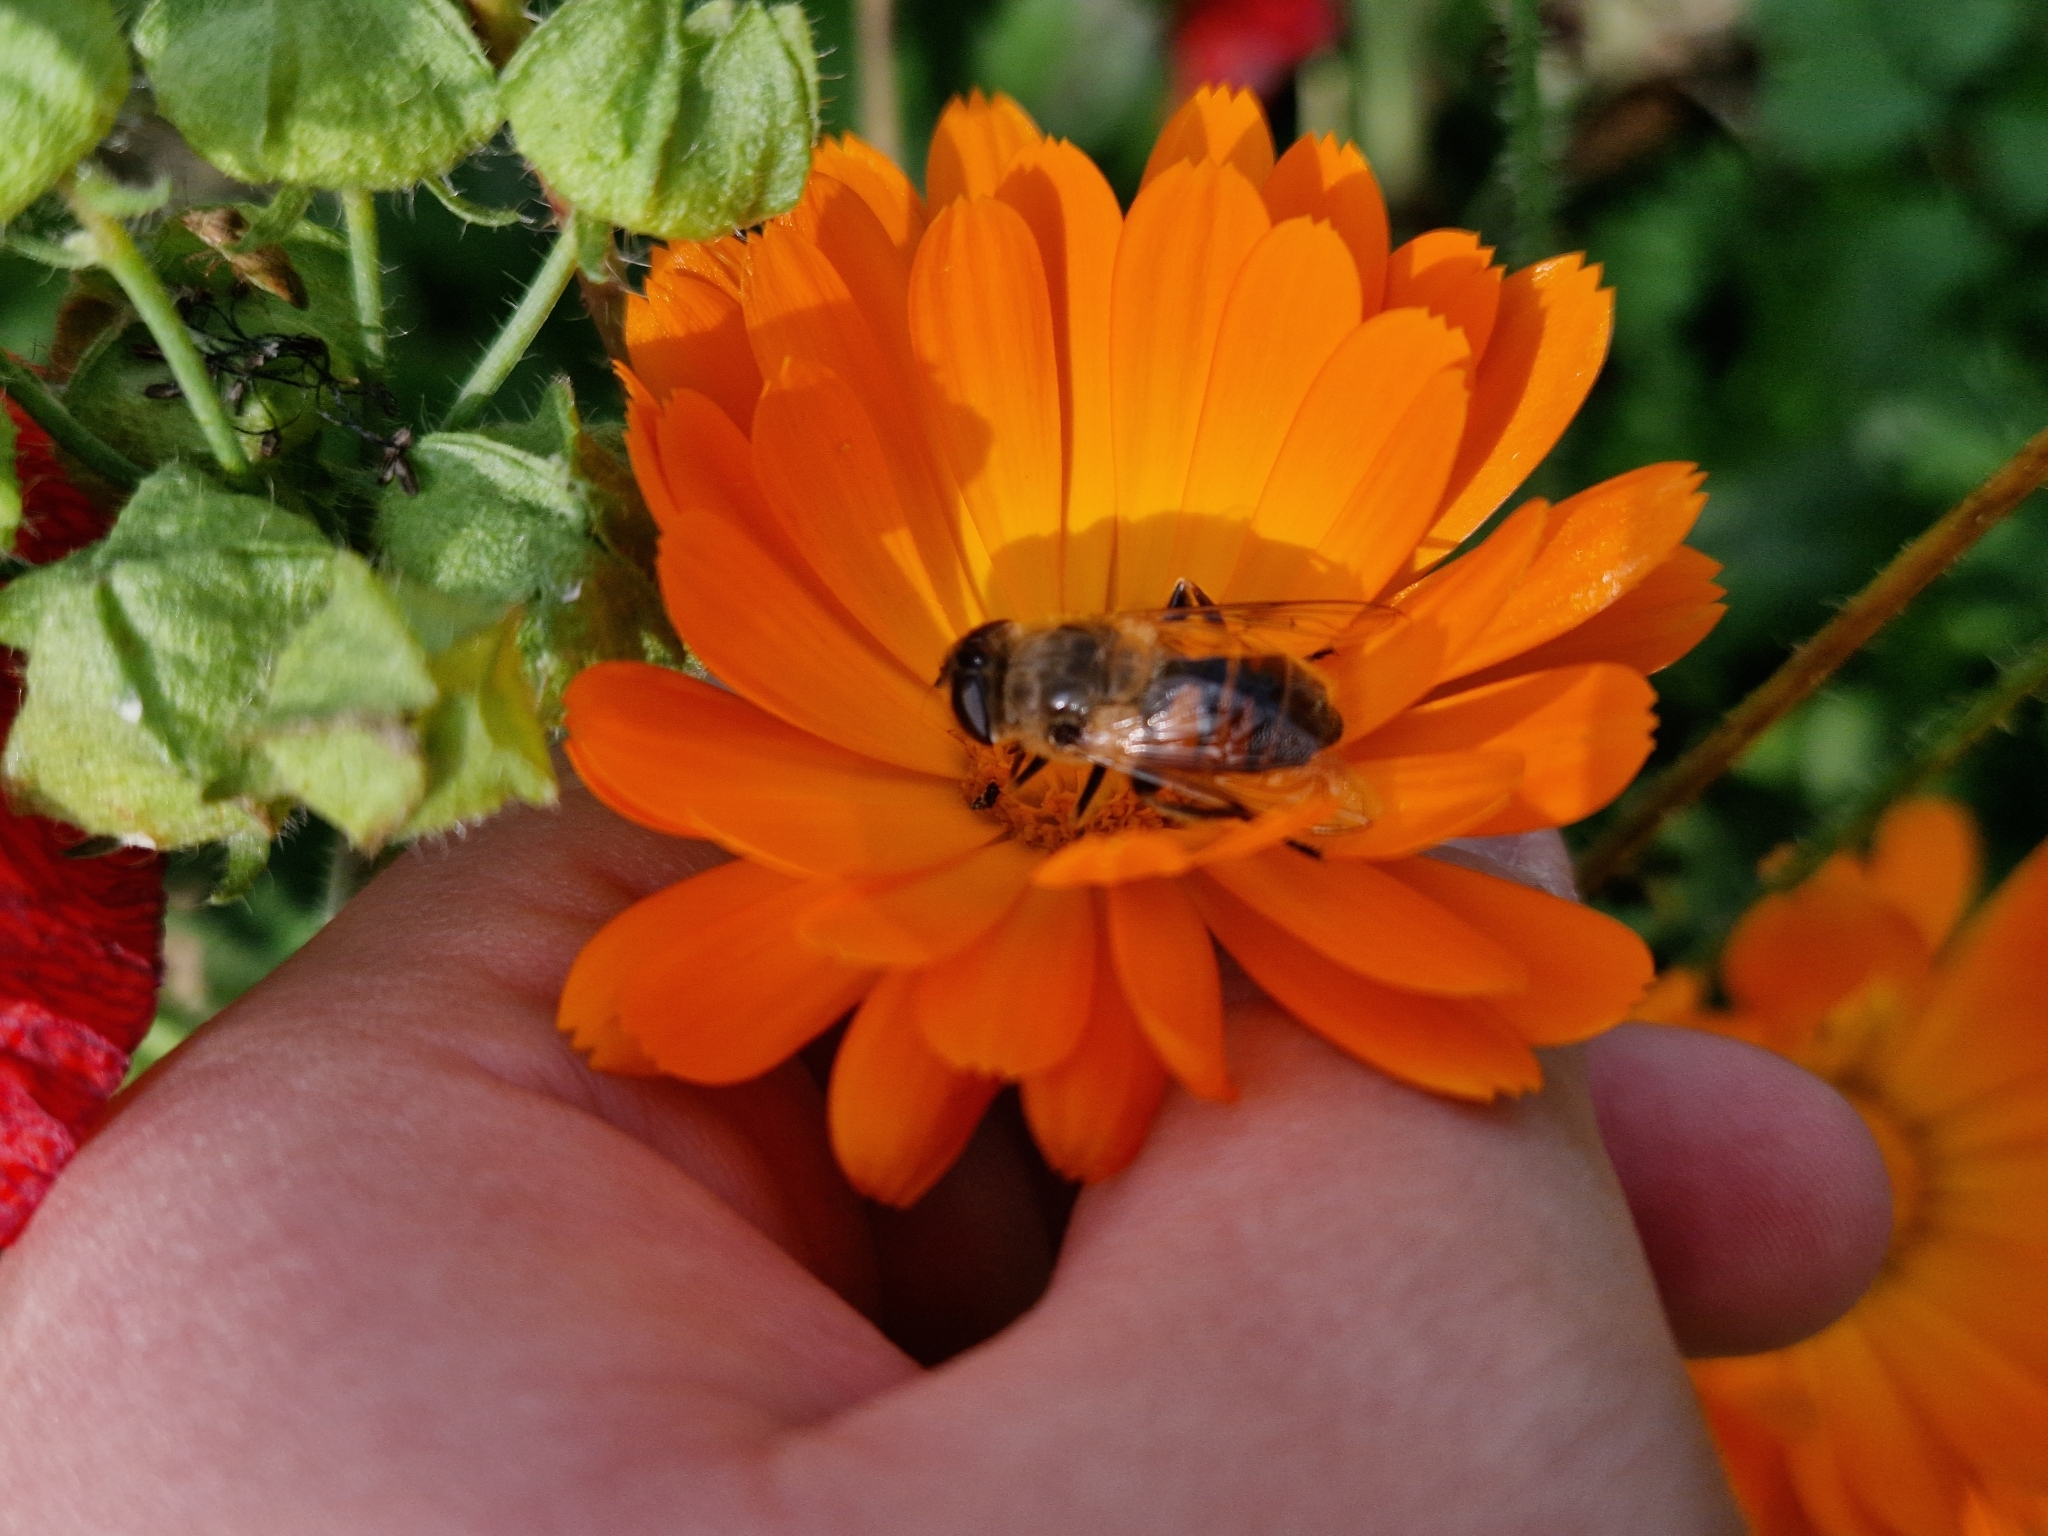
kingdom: Animalia
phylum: Arthropoda
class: Insecta
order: Diptera
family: Syrphidae
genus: Eristalis
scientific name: Eristalis tenax
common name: Drone fly
